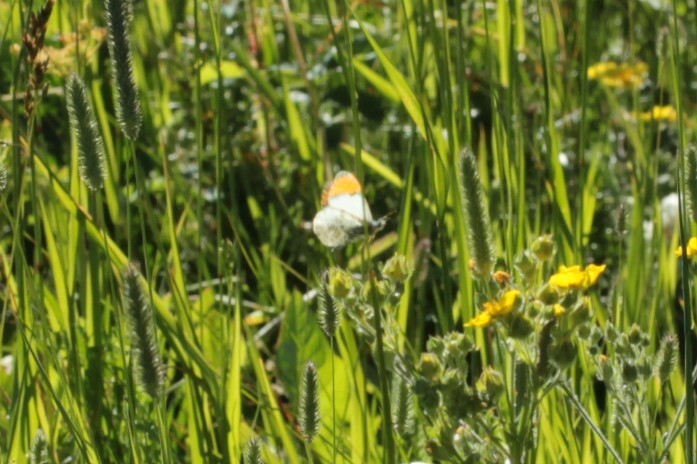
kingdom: Animalia
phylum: Arthropoda
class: Insecta
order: Lepidoptera
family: Pieridae
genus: Anthocharis
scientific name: Anthocharis julia
